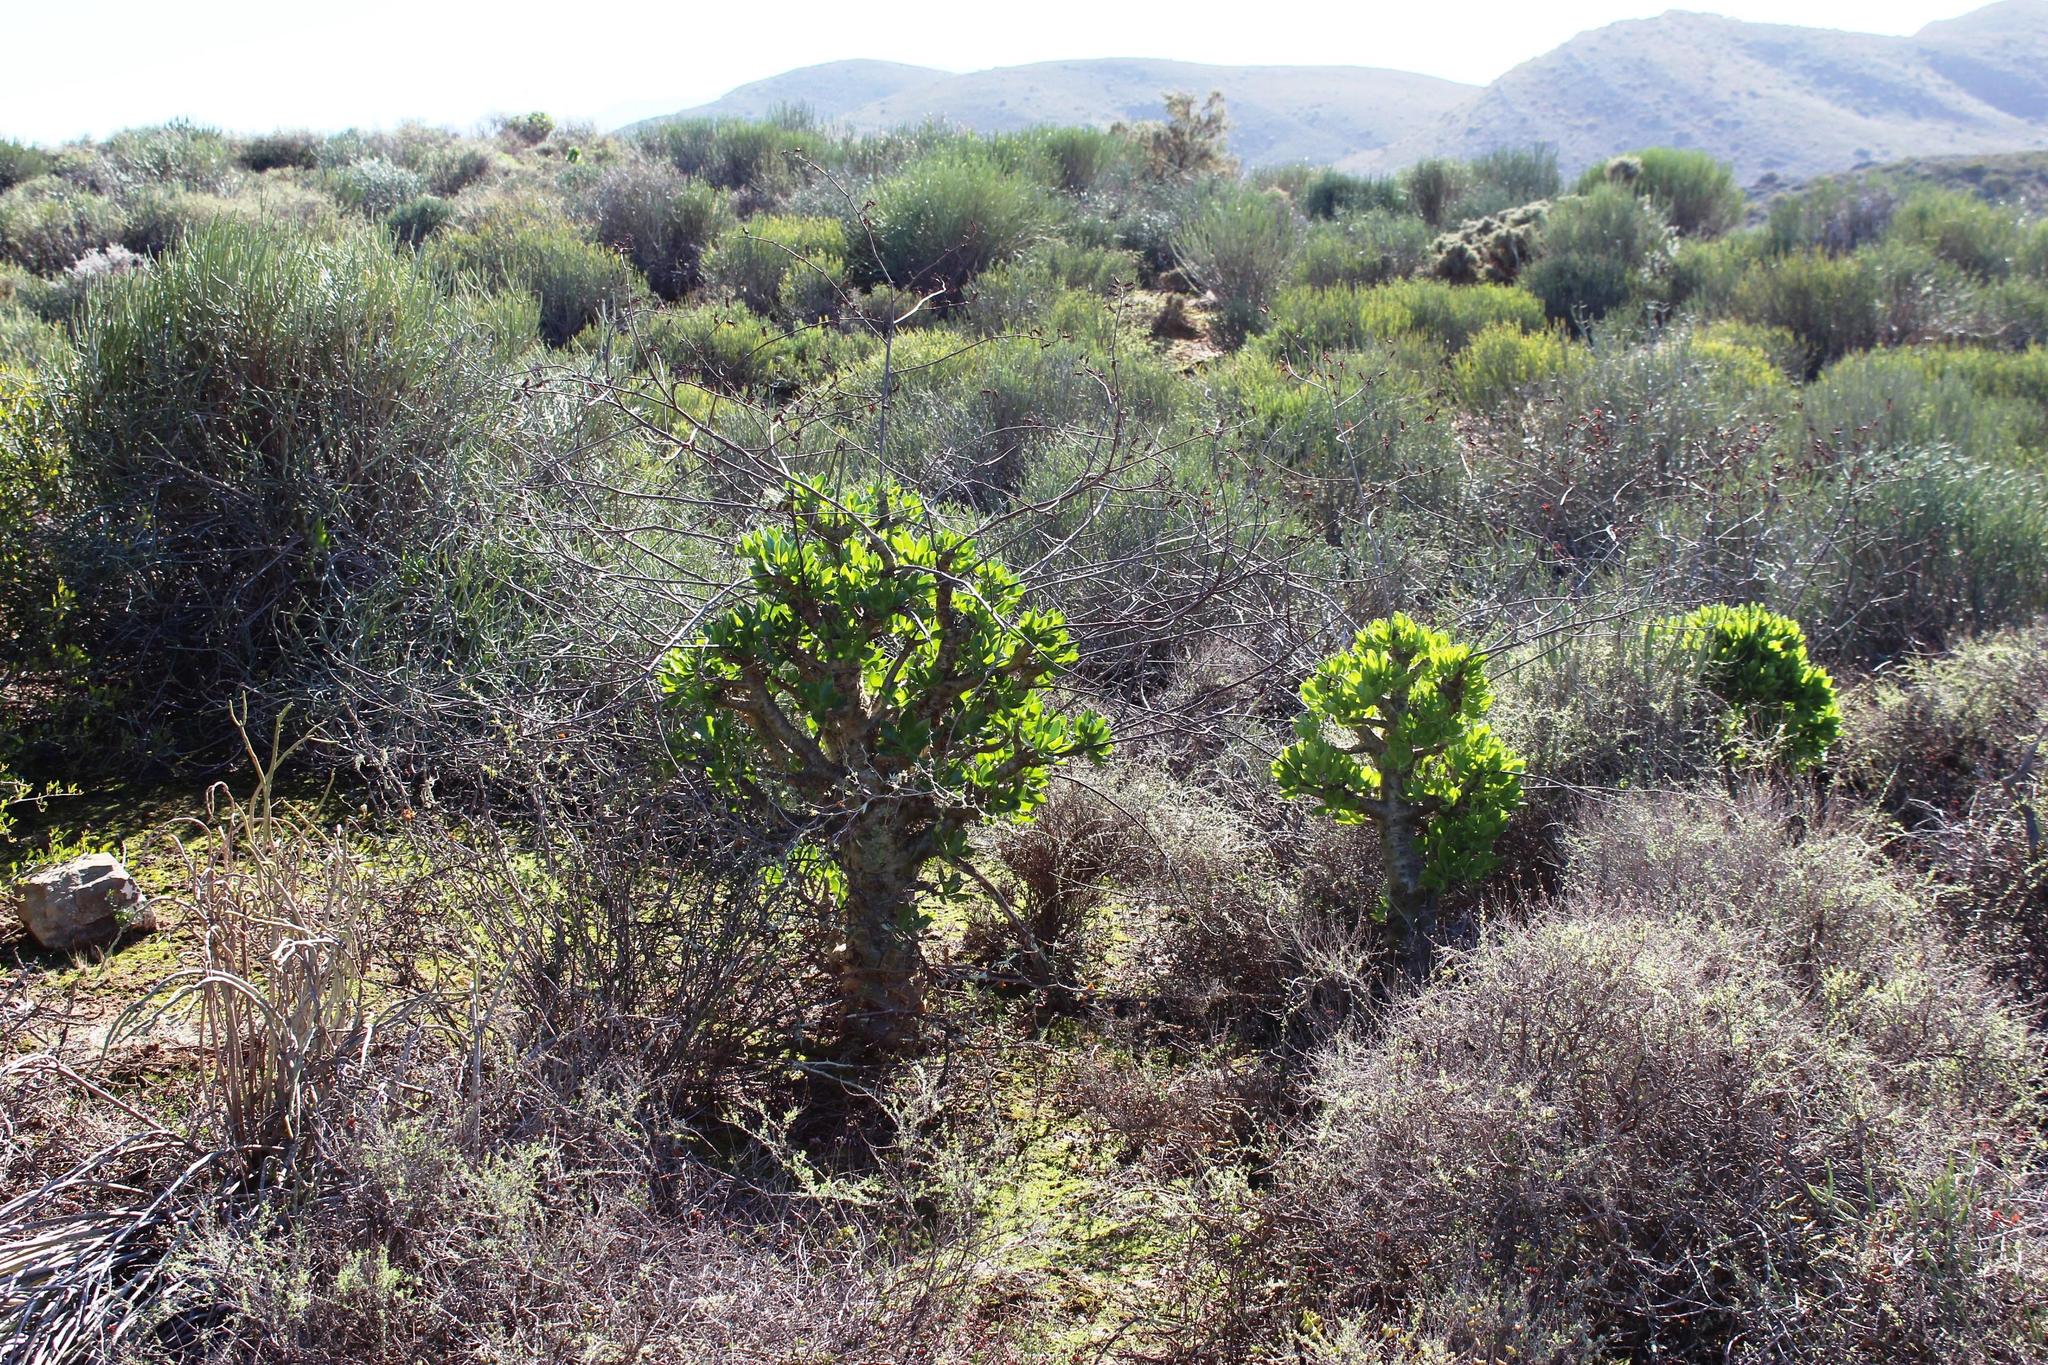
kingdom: Plantae
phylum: Tracheophyta
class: Magnoliopsida
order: Saxifragales
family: Crassulaceae
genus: Tylecodon
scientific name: Tylecodon paniculatus
